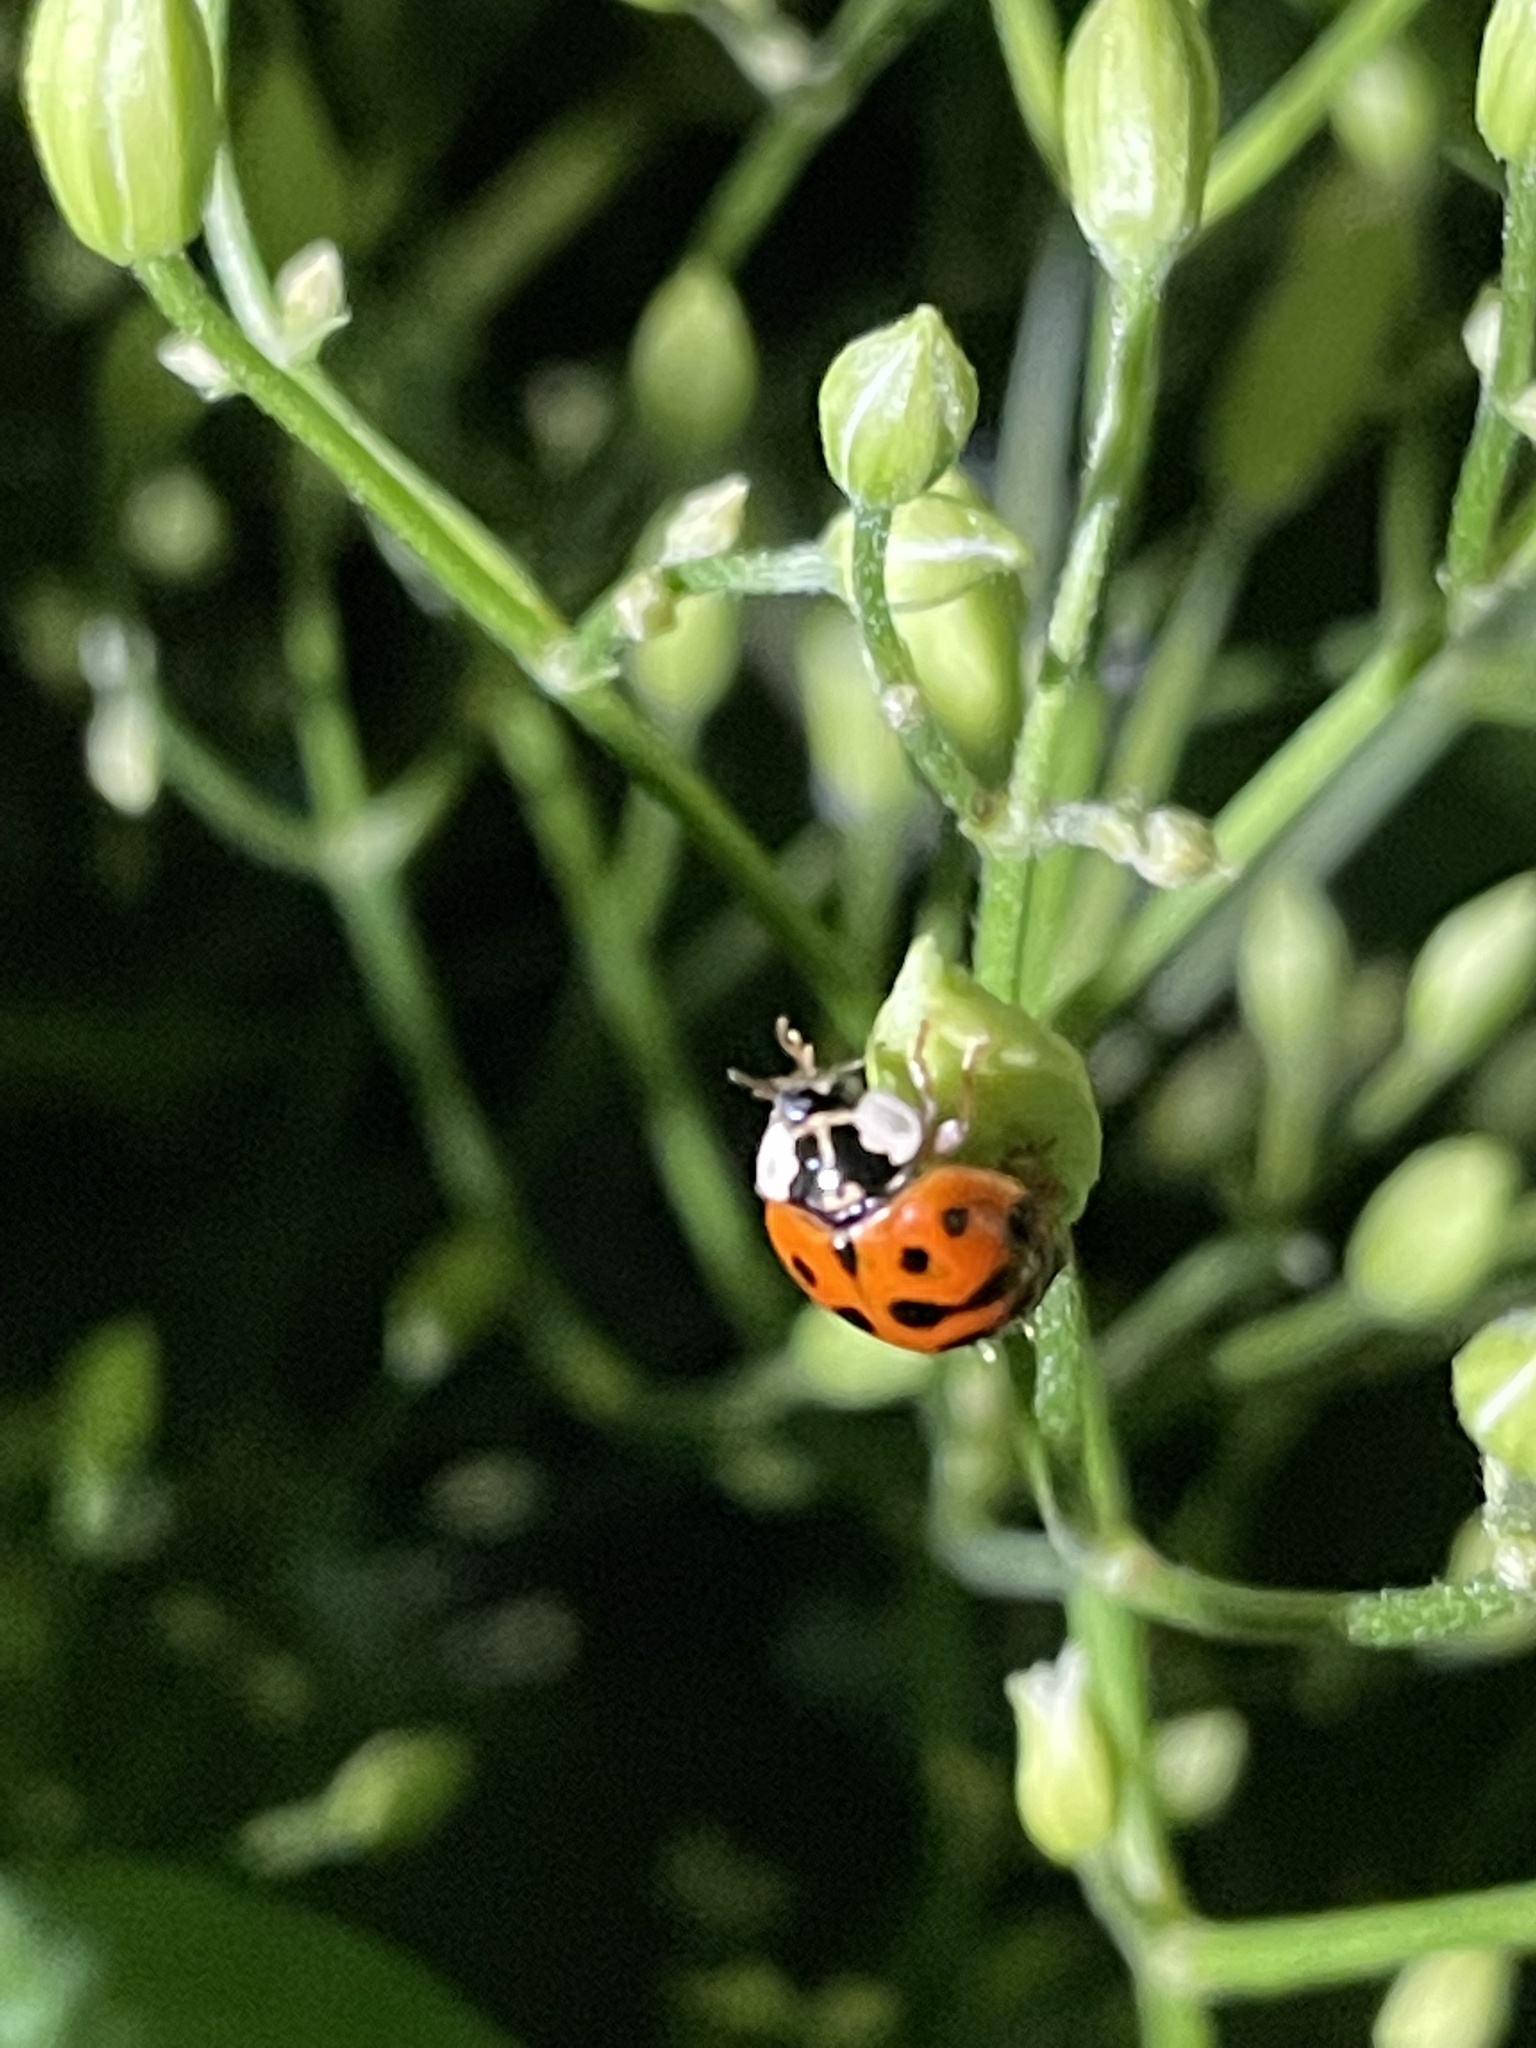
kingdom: Animalia
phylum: Arthropoda
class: Insecta
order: Coleoptera
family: Coccinellidae
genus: Harmonia
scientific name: Harmonia axyridis
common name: Harlequin ladybird
